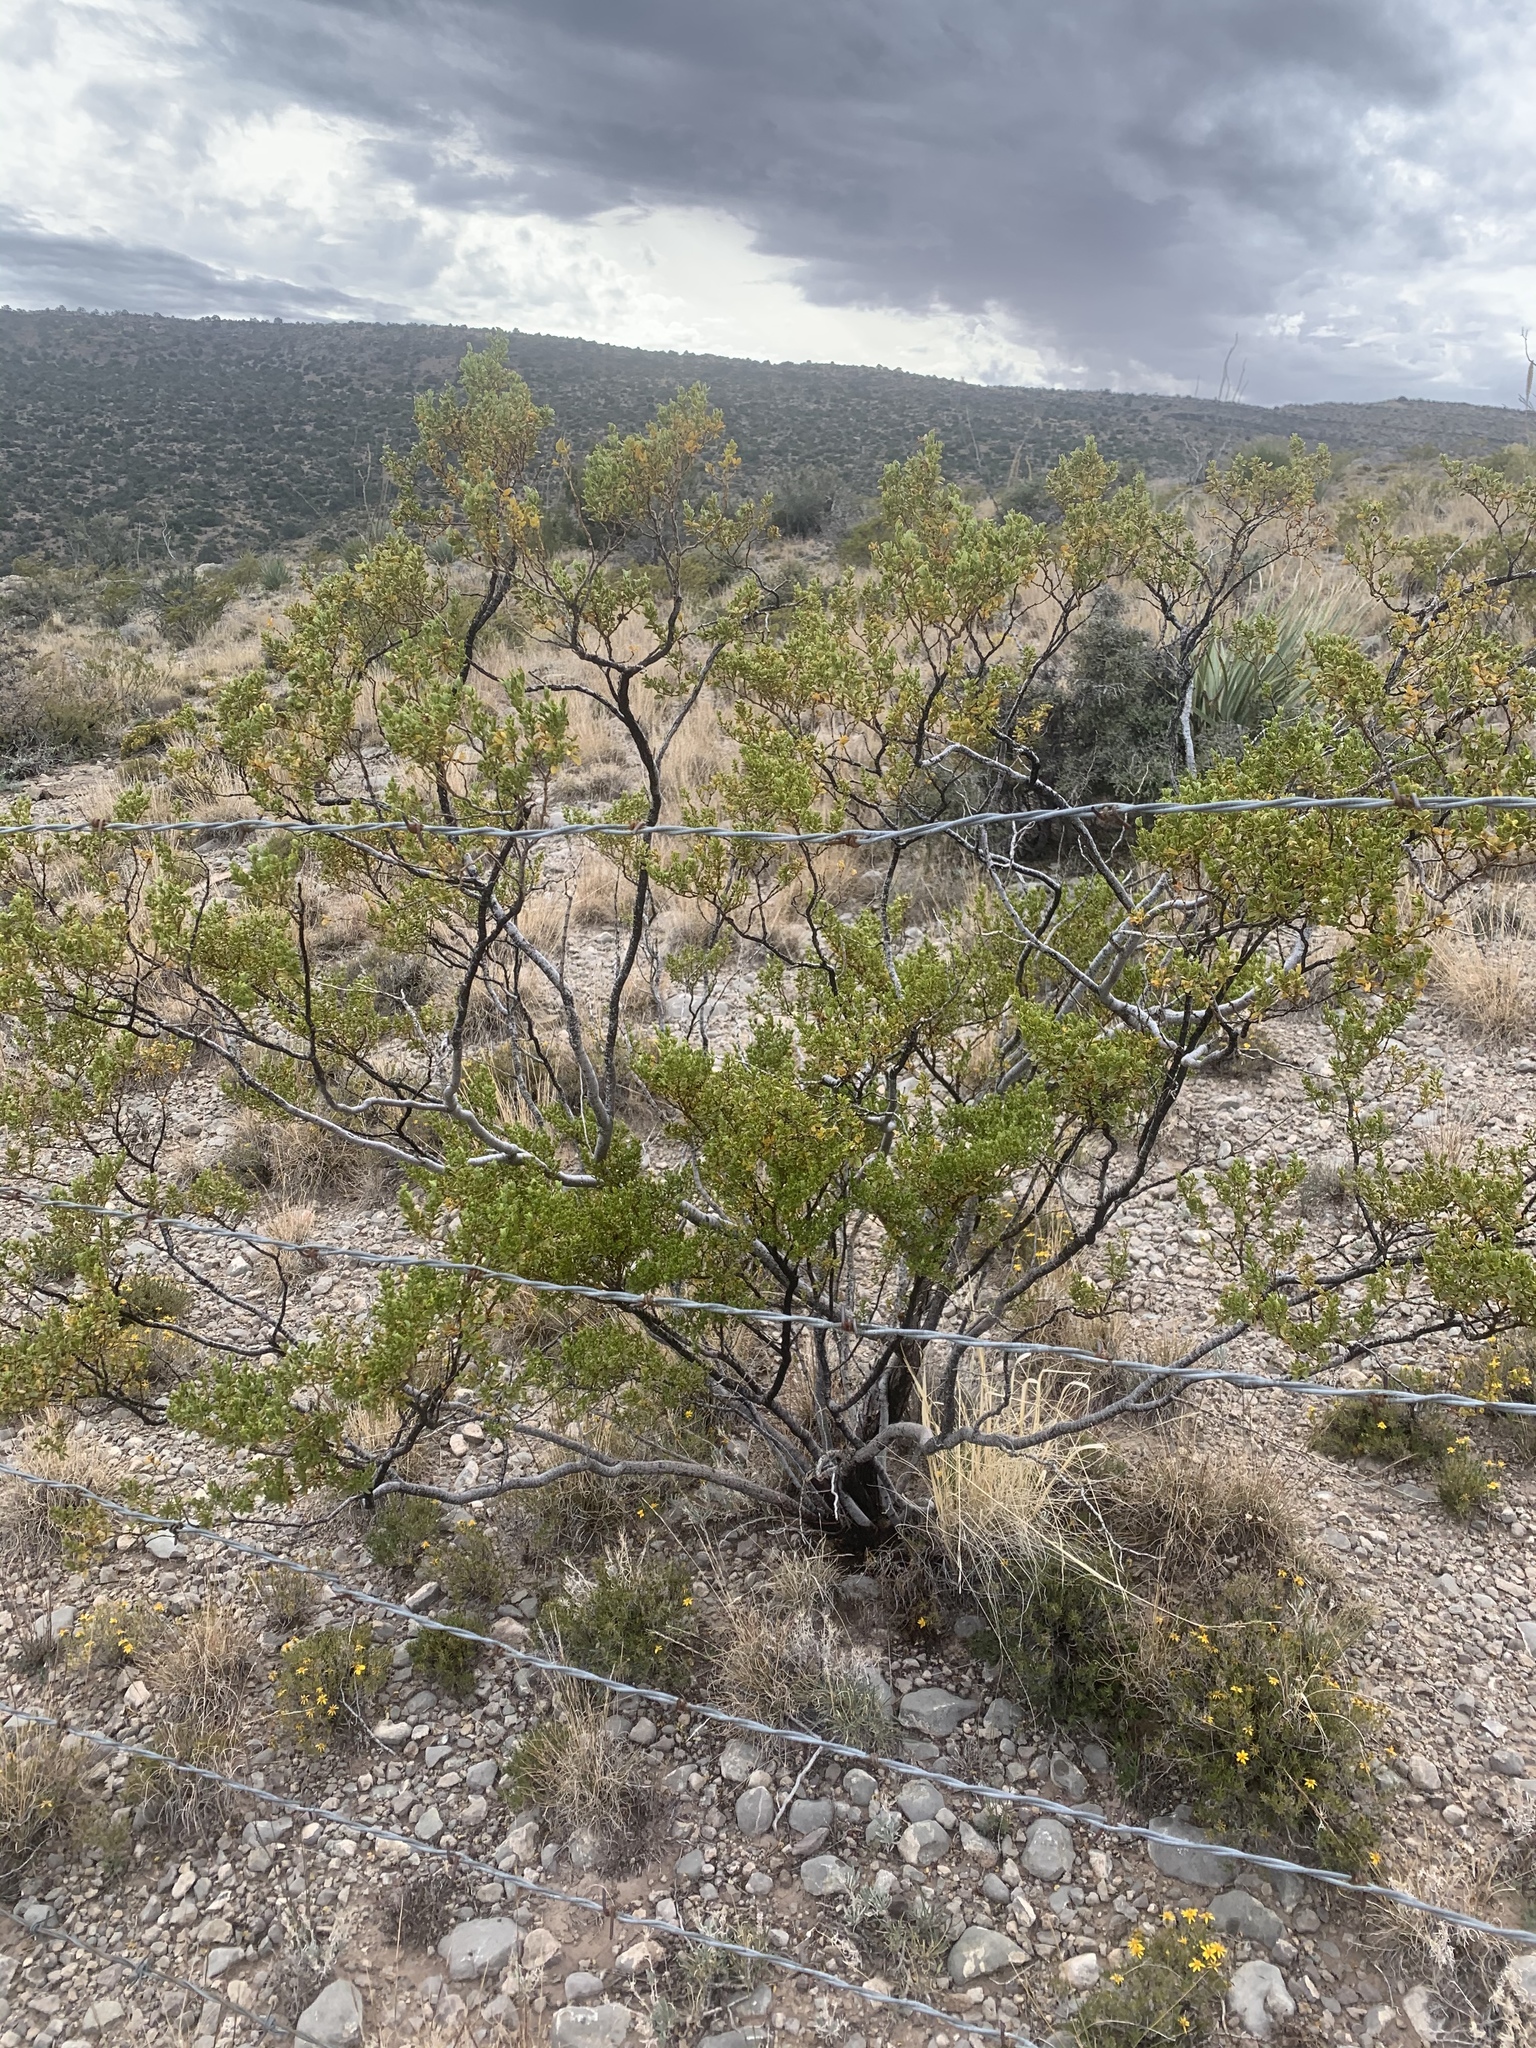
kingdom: Plantae
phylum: Tracheophyta
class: Magnoliopsida
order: Zygophyllales
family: Zygophyllaceae
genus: Larrea
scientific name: Larrea tridentata
